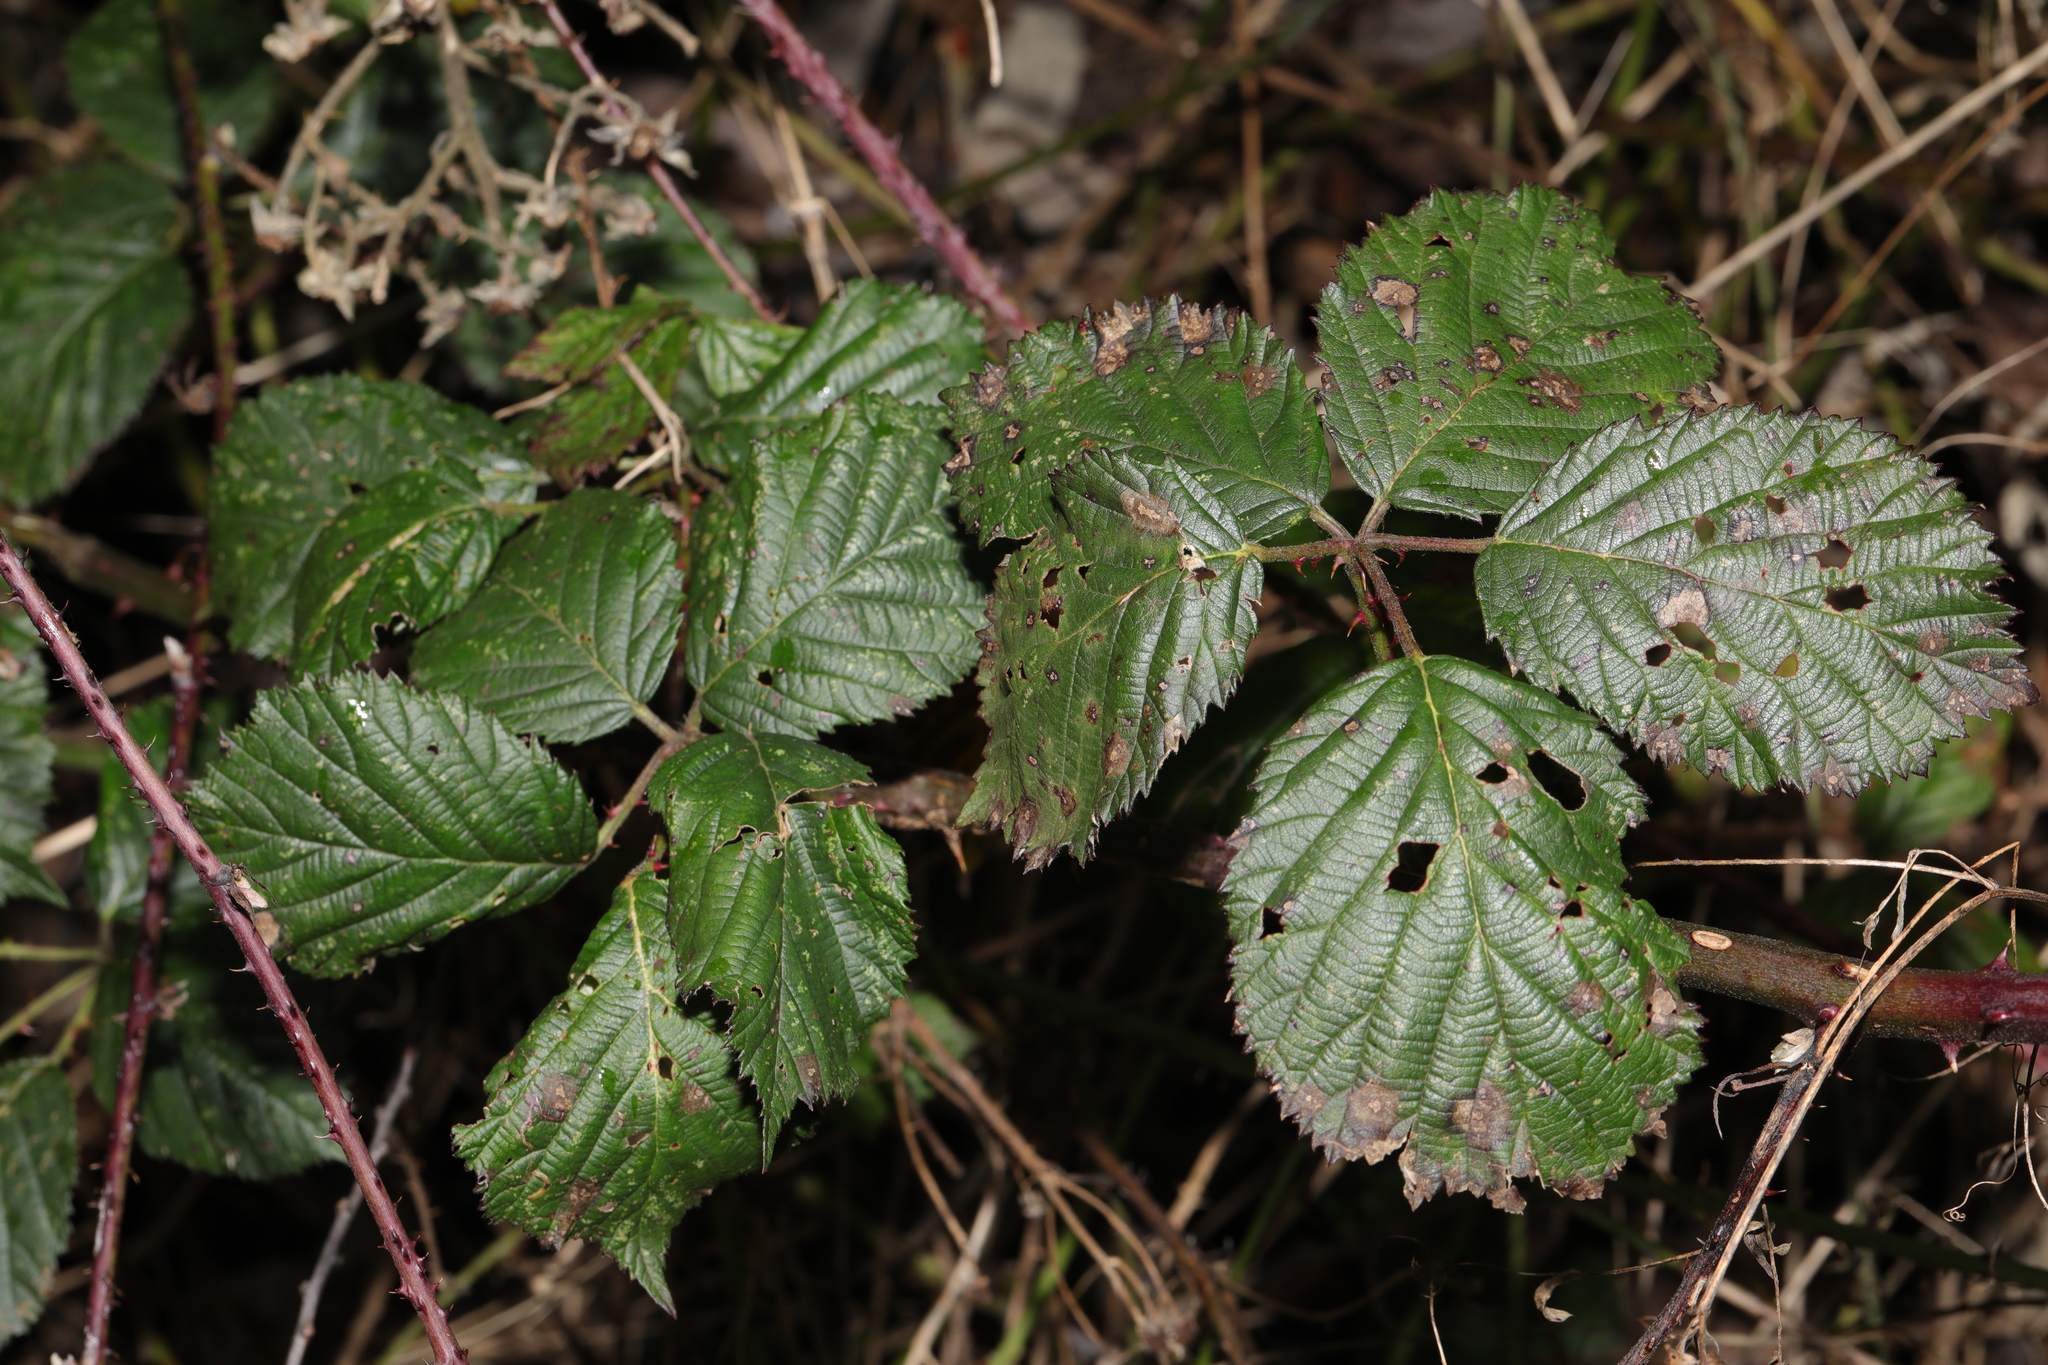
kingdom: Plantae
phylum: Tracheophyta
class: Magnoliopsida
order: Rosales
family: Rosaceae
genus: Rubus
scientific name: Rubus horrefactus
